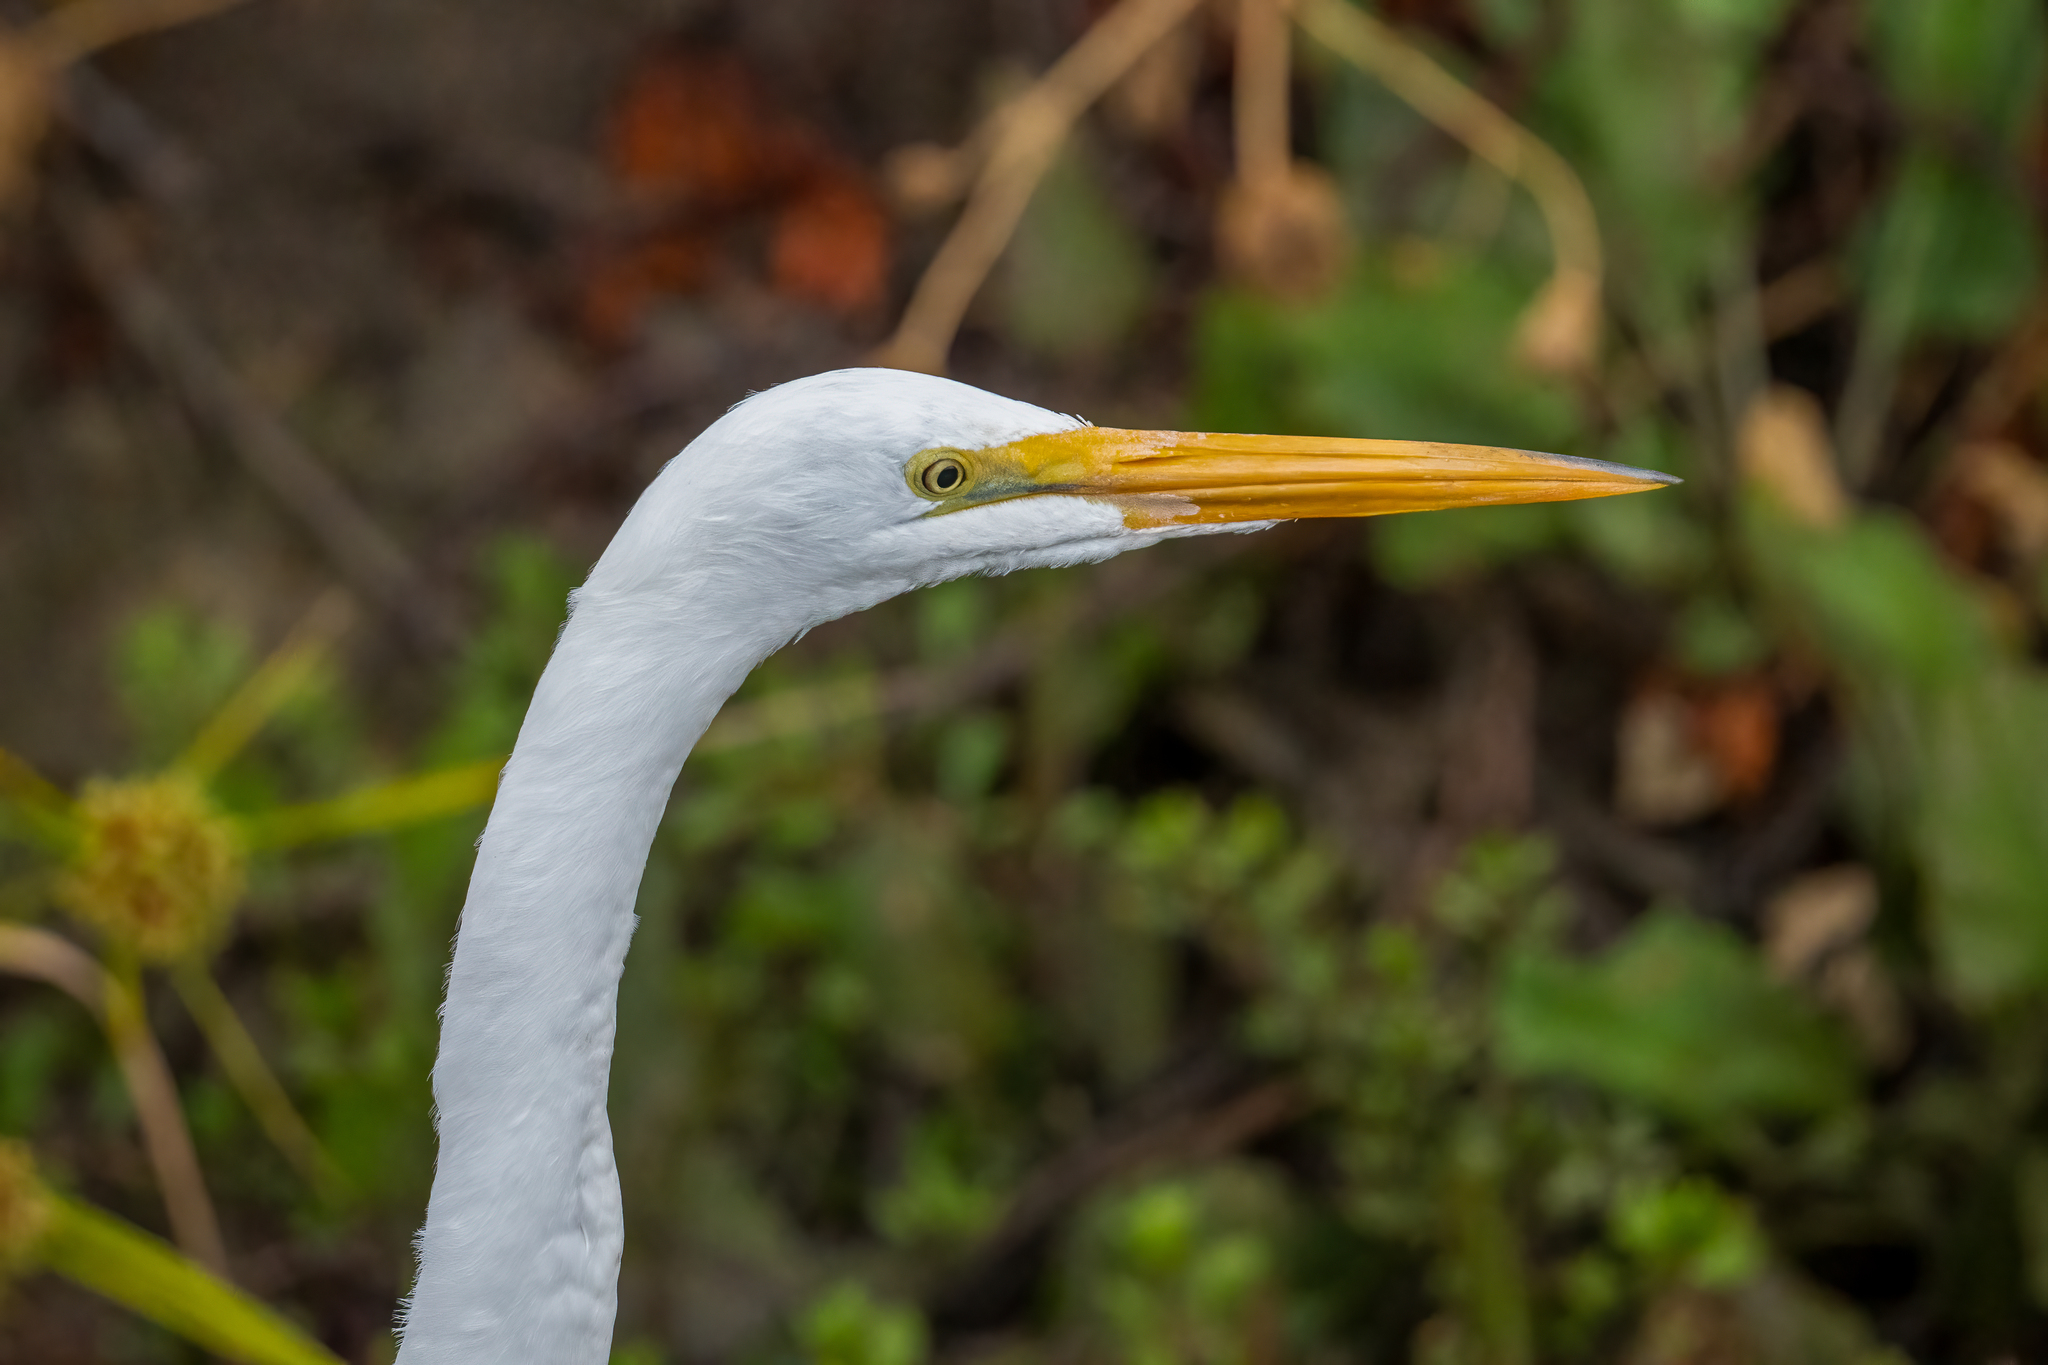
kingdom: Animalia
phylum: Chordata
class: Aves
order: Pelecaniformes
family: Ardeidae
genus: Ardea
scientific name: Ardea alba
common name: Great egret
